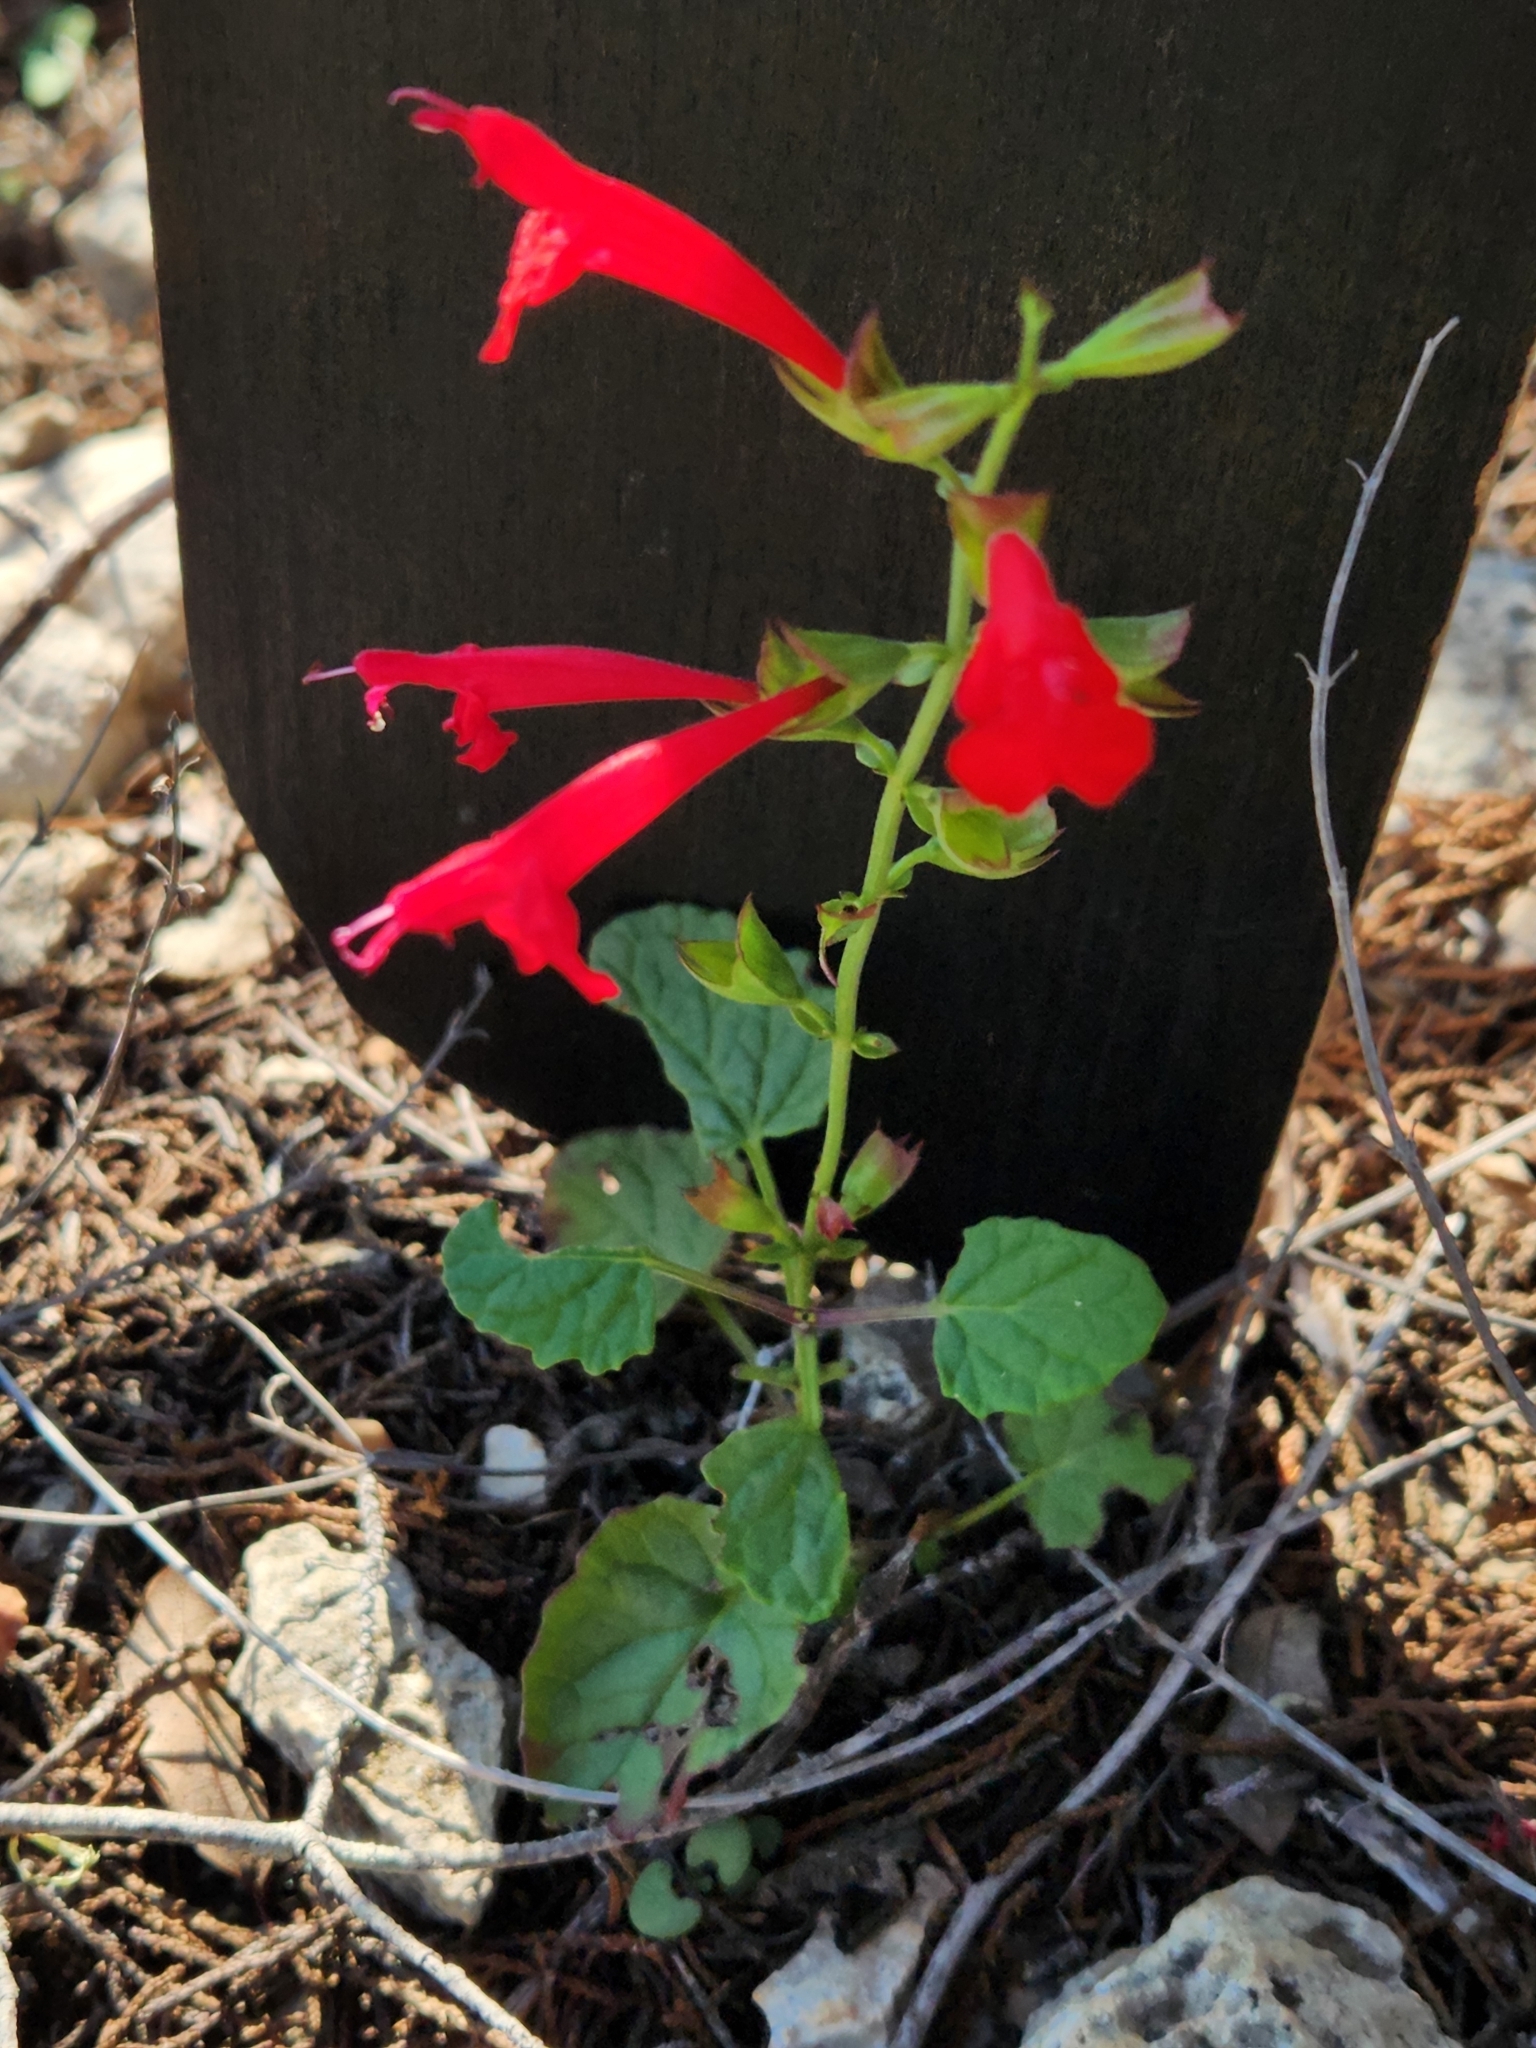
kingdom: Plantae
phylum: Tracheophyta
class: Magnoliopsida
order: Lamiales
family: Lamiaceae
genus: Salvia
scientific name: Salvia roemeriana
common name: Cedar sage
